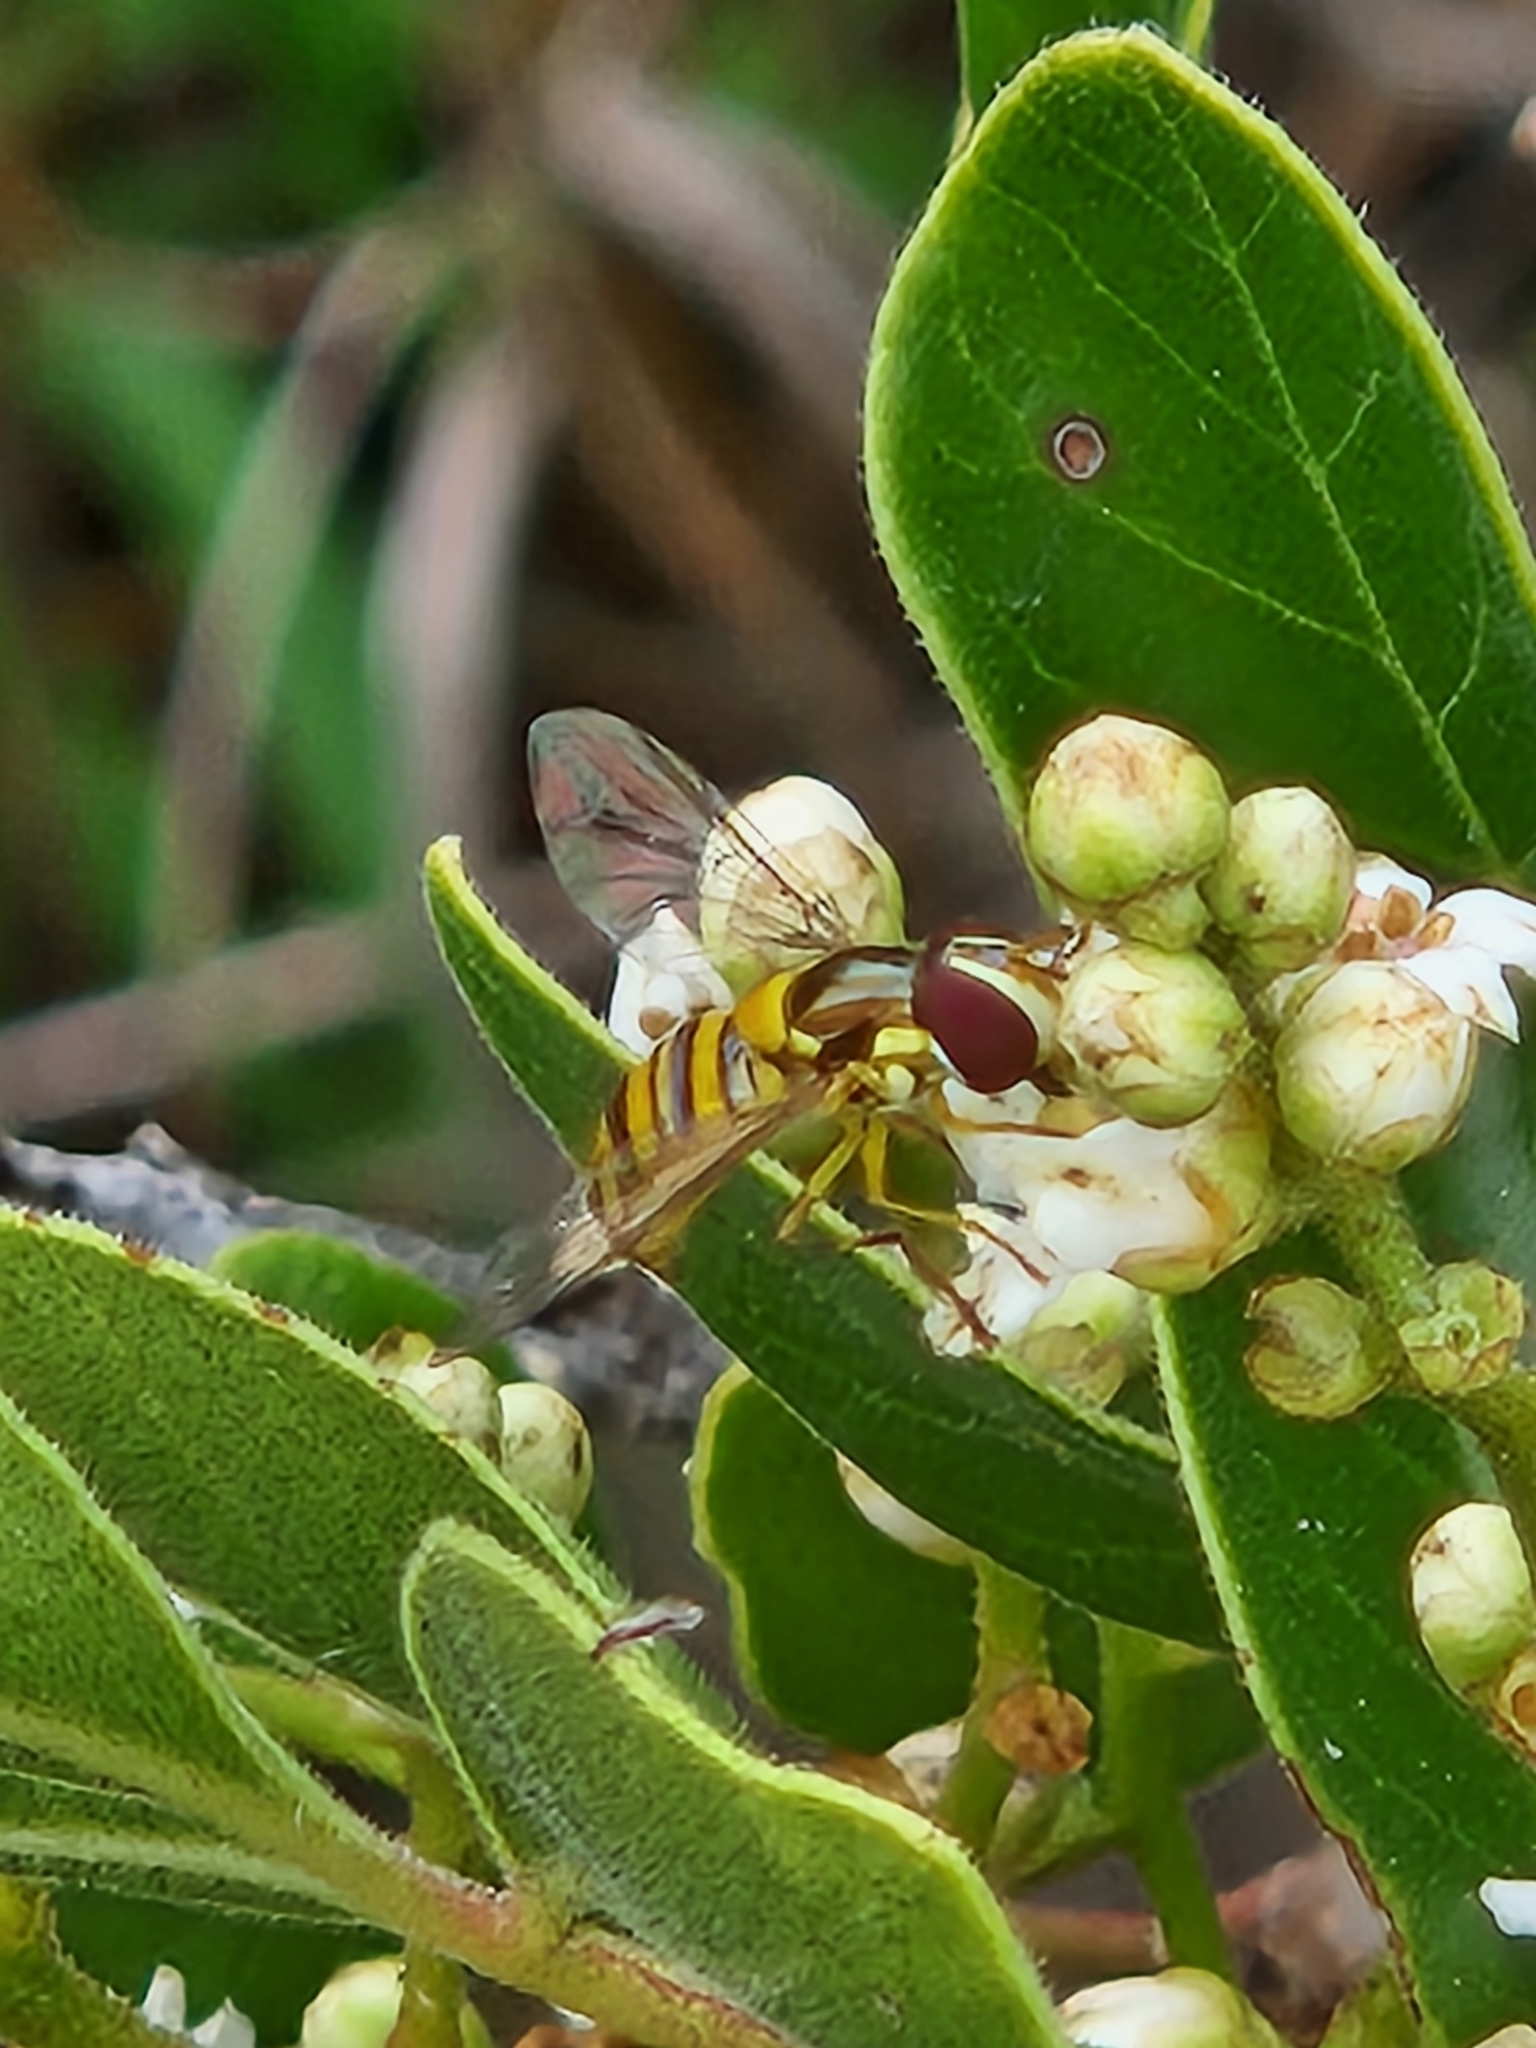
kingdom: Animalia
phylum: Arthropoda
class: Insecta
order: Diptera
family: Syrphidae
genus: Allograpta
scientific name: Allograpta obliqua
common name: Common oblique syrphid
